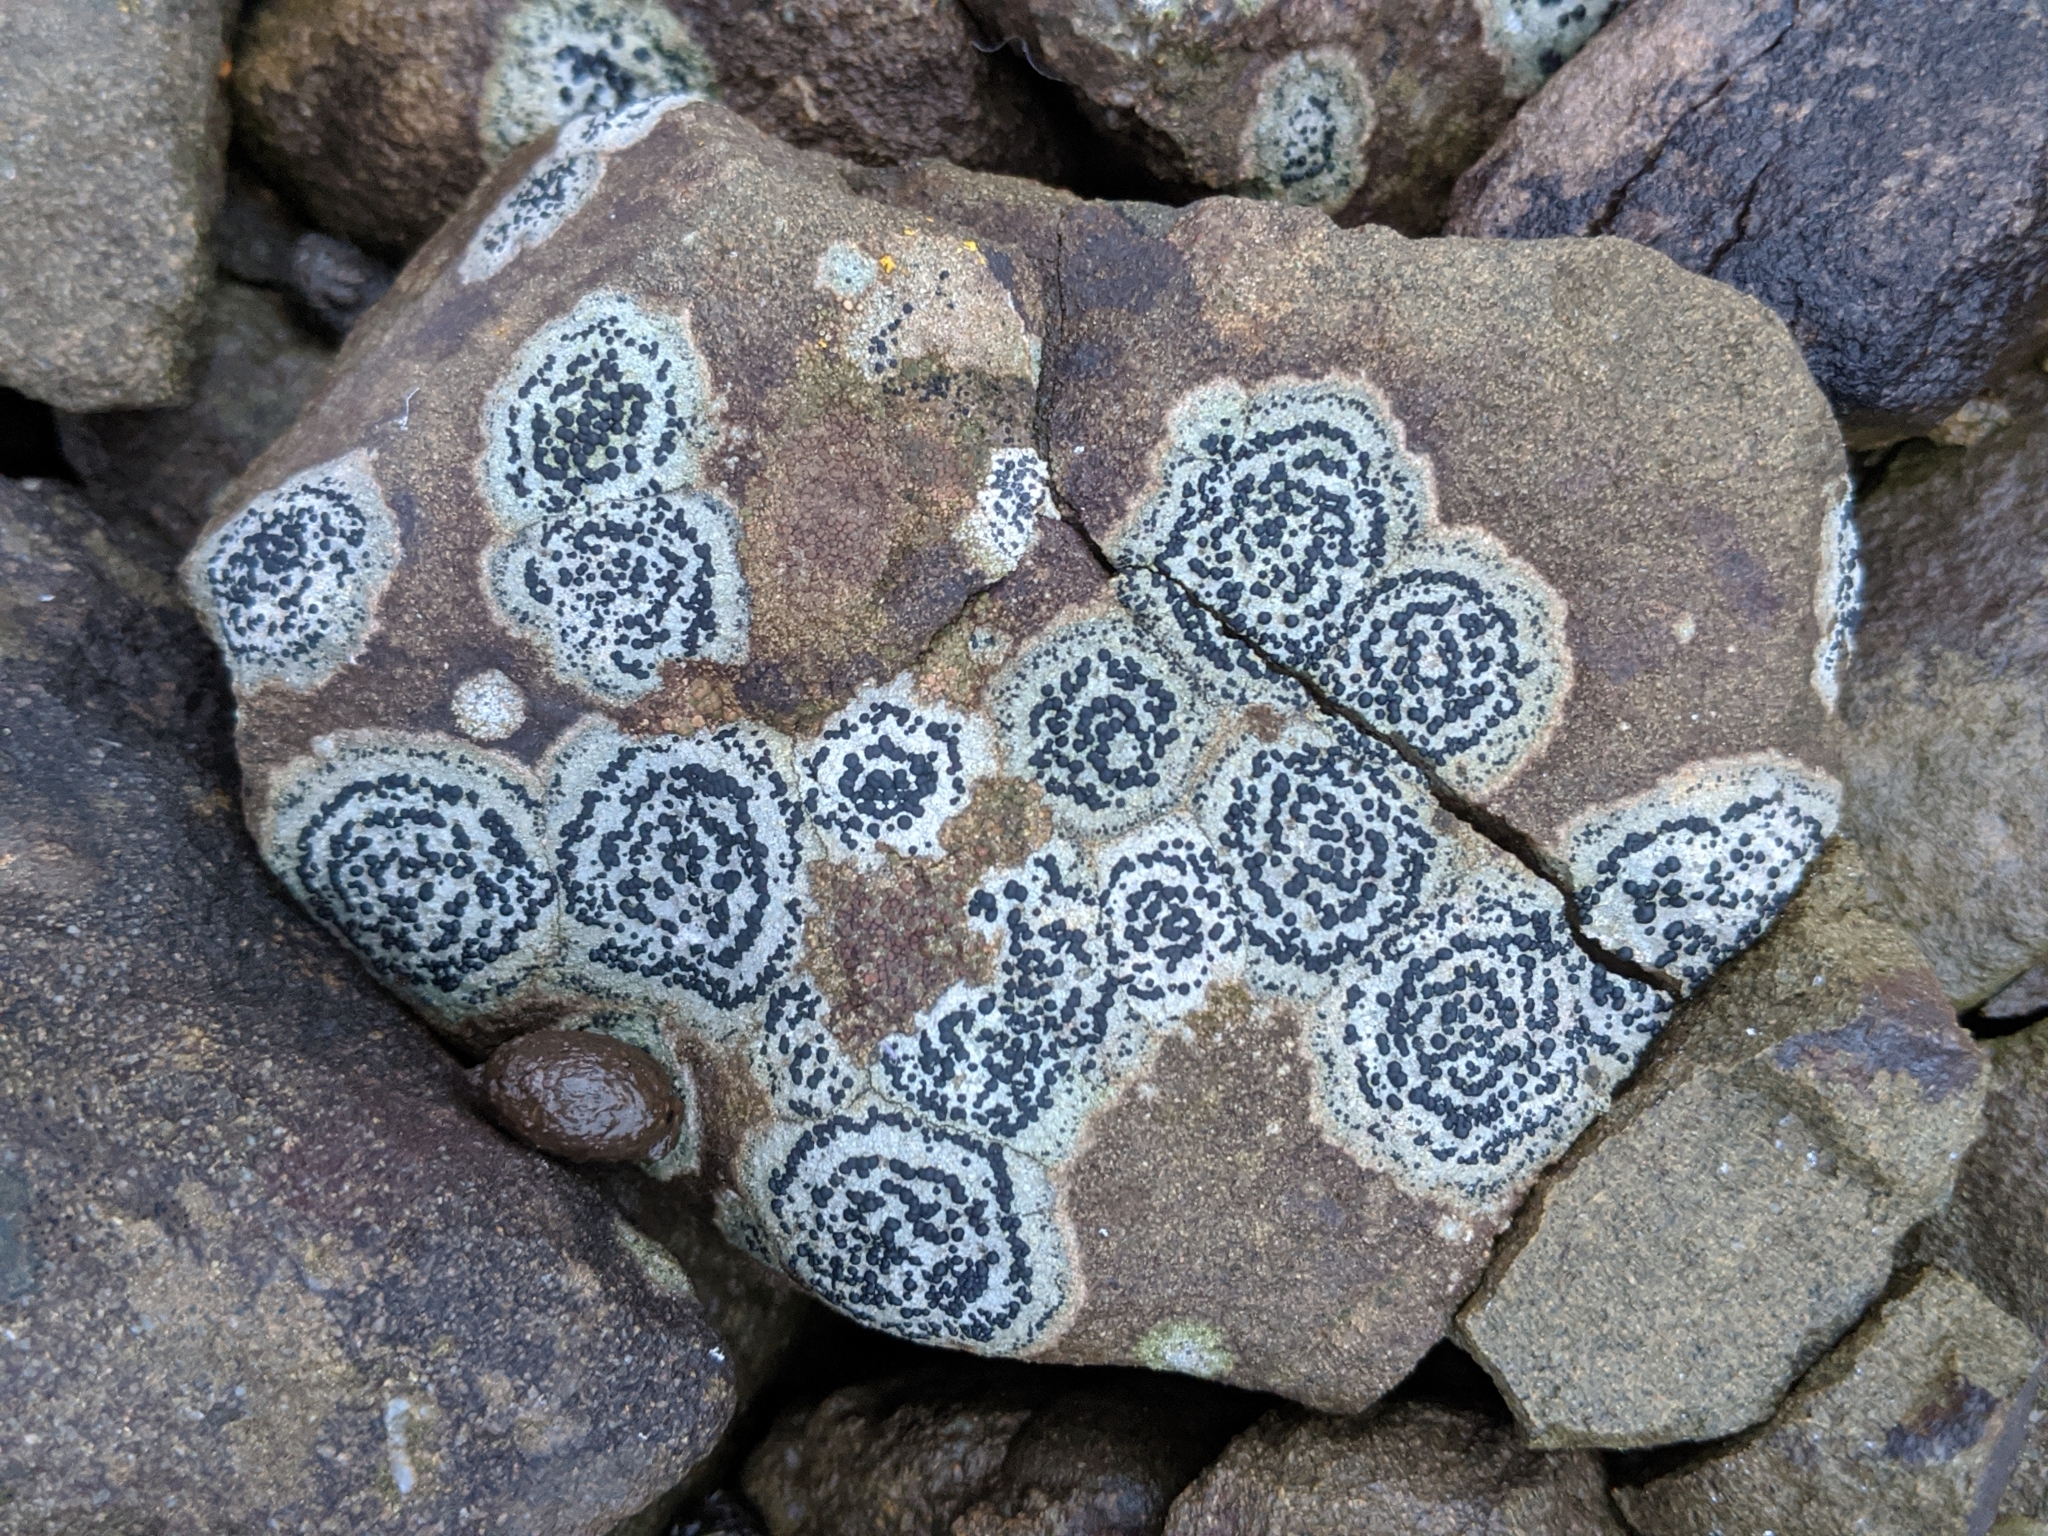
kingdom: Fungi
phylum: Ascomycota
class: Lecanoromycetes
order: Lecideales
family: Lecideaceae
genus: Porpidia
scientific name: Porpidia crustulata
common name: Concentric boulder lichen
